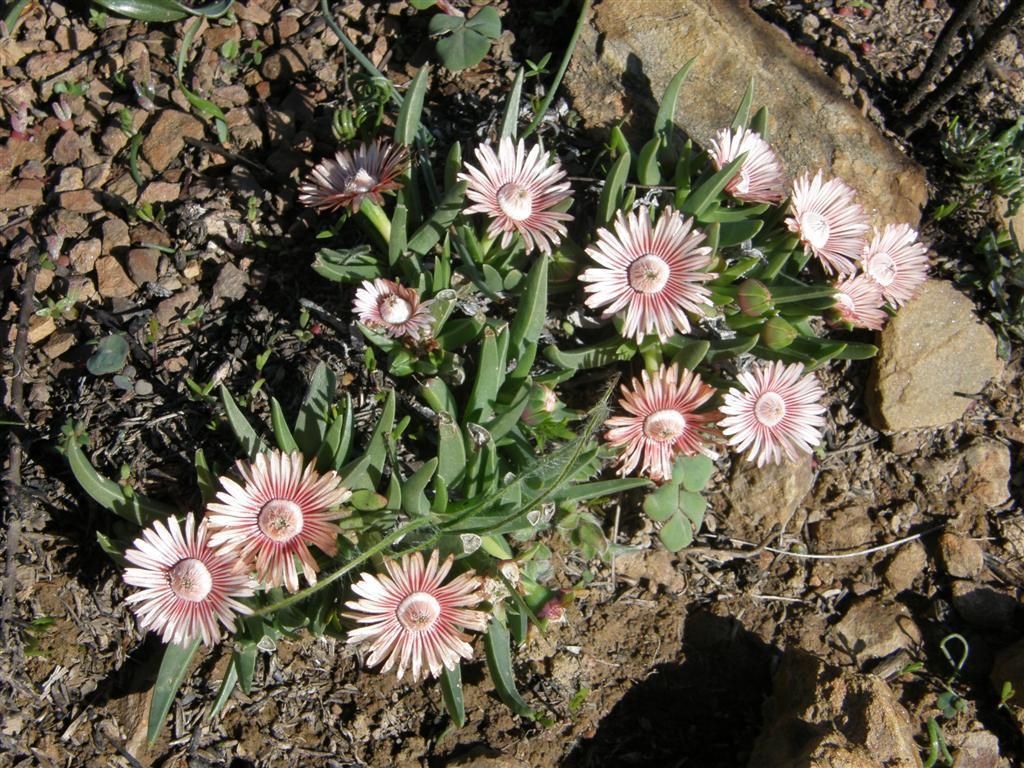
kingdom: Plantae
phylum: Tracheophyta
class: Magnoliopsida
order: Caryophyllales
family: Aizoaceae
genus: Acrodon
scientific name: Acrodon subulatus
